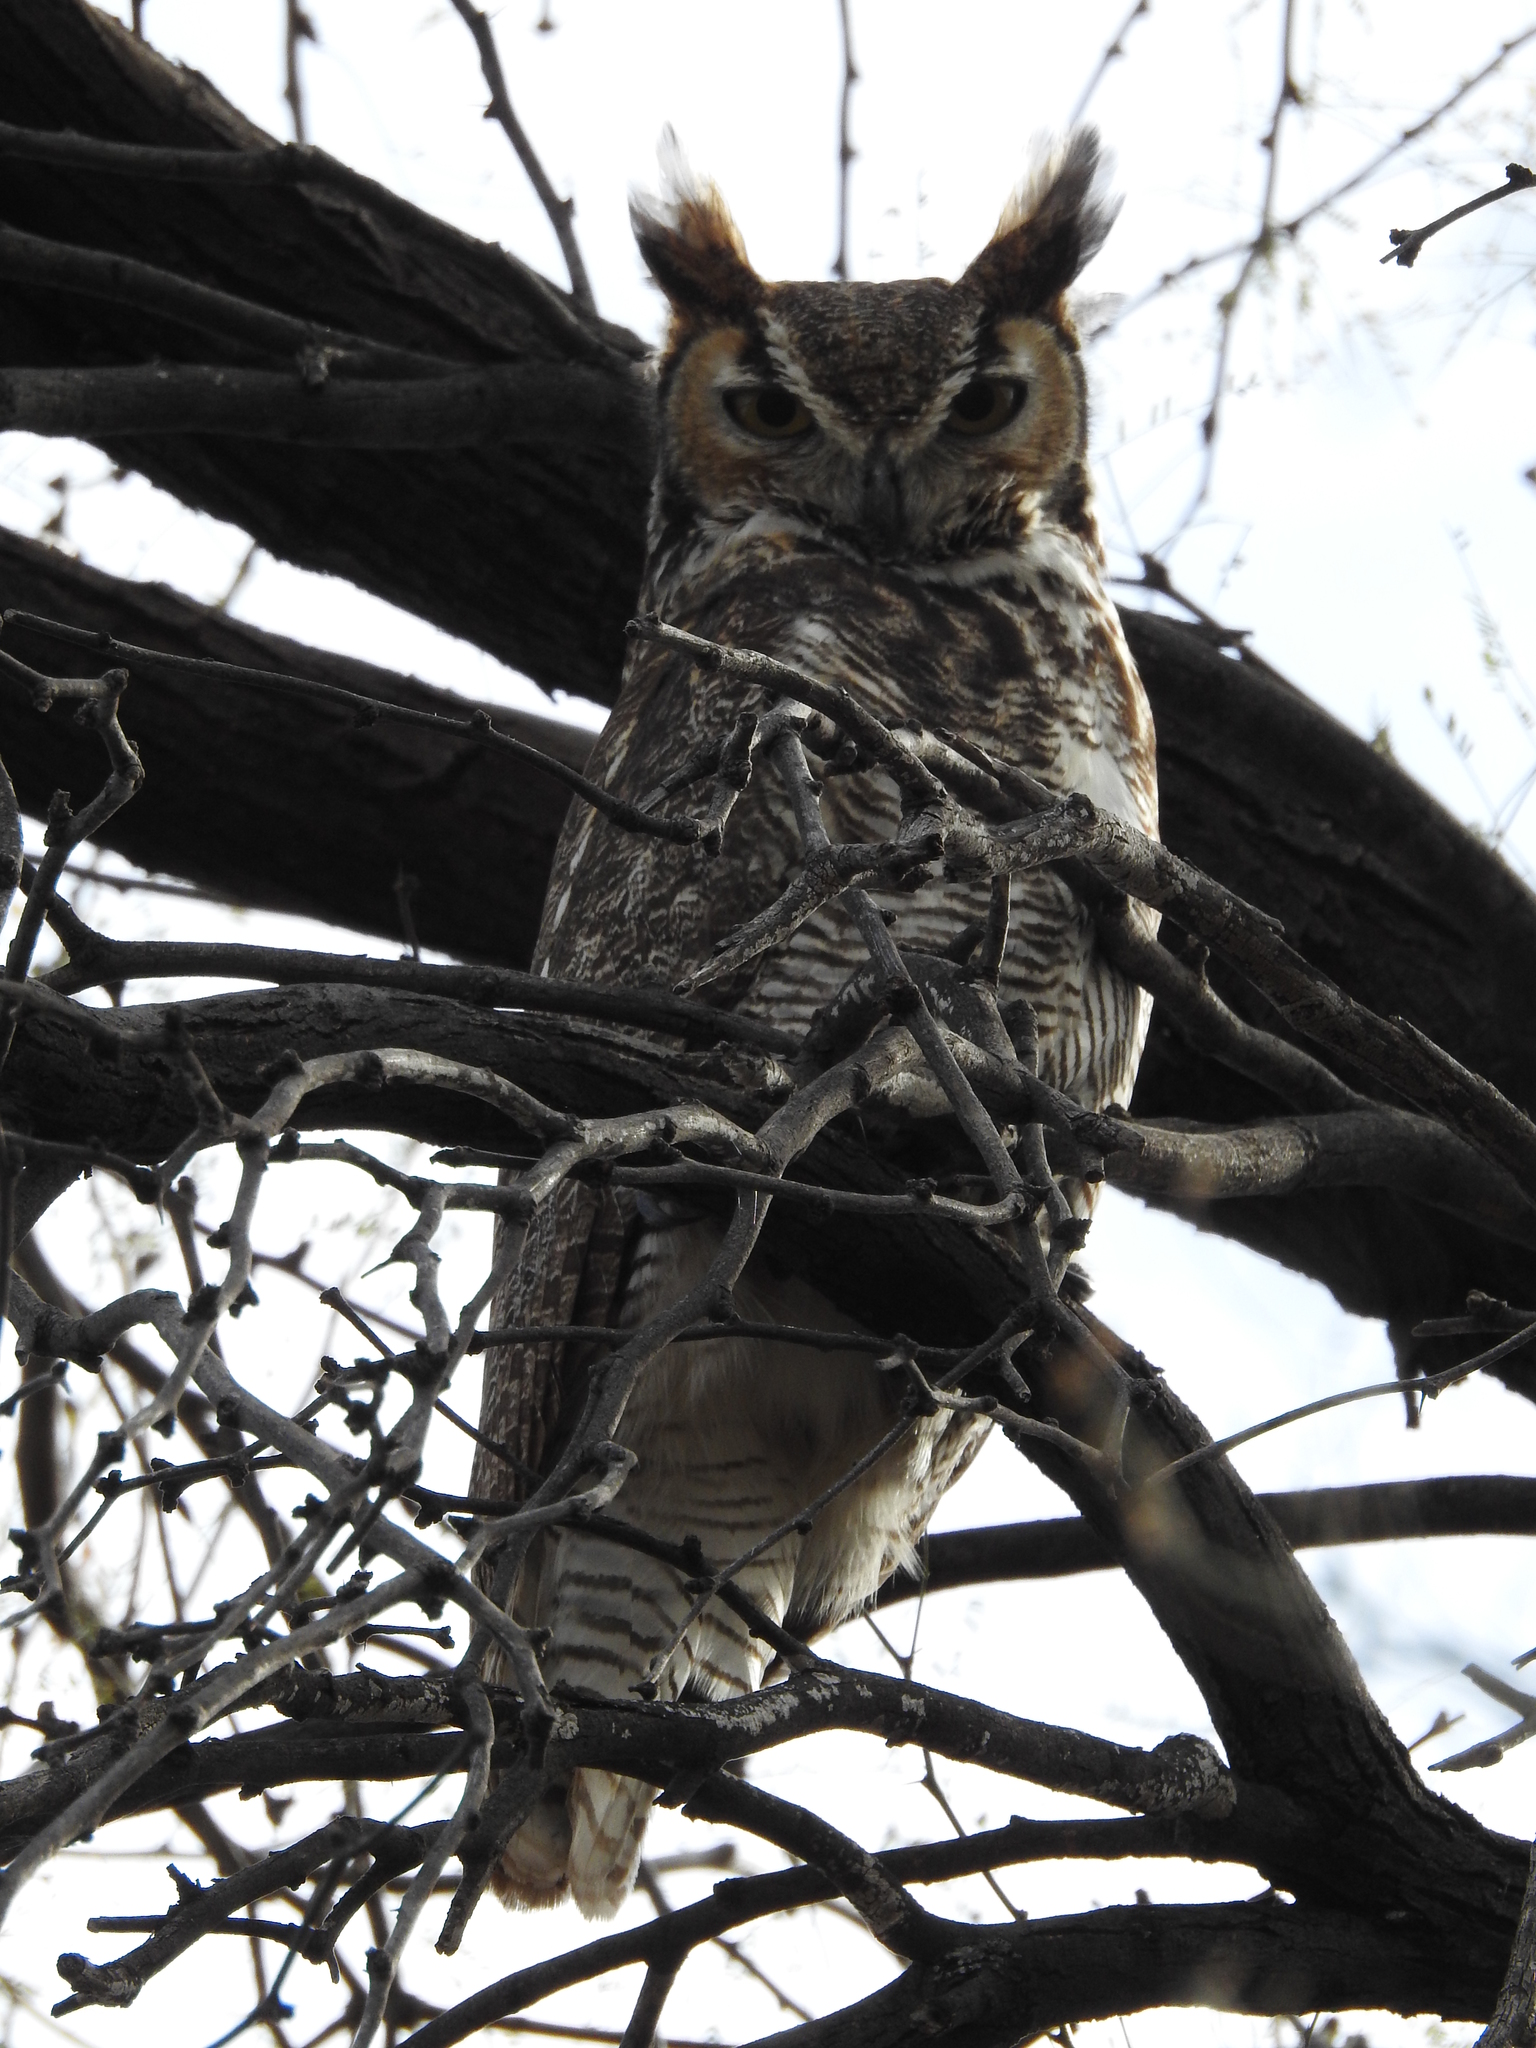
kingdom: Animalia
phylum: Chordata
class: Aves
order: Strigiformes
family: Strigidae
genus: Bubo
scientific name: Bubo virginianus
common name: Great horned owl
